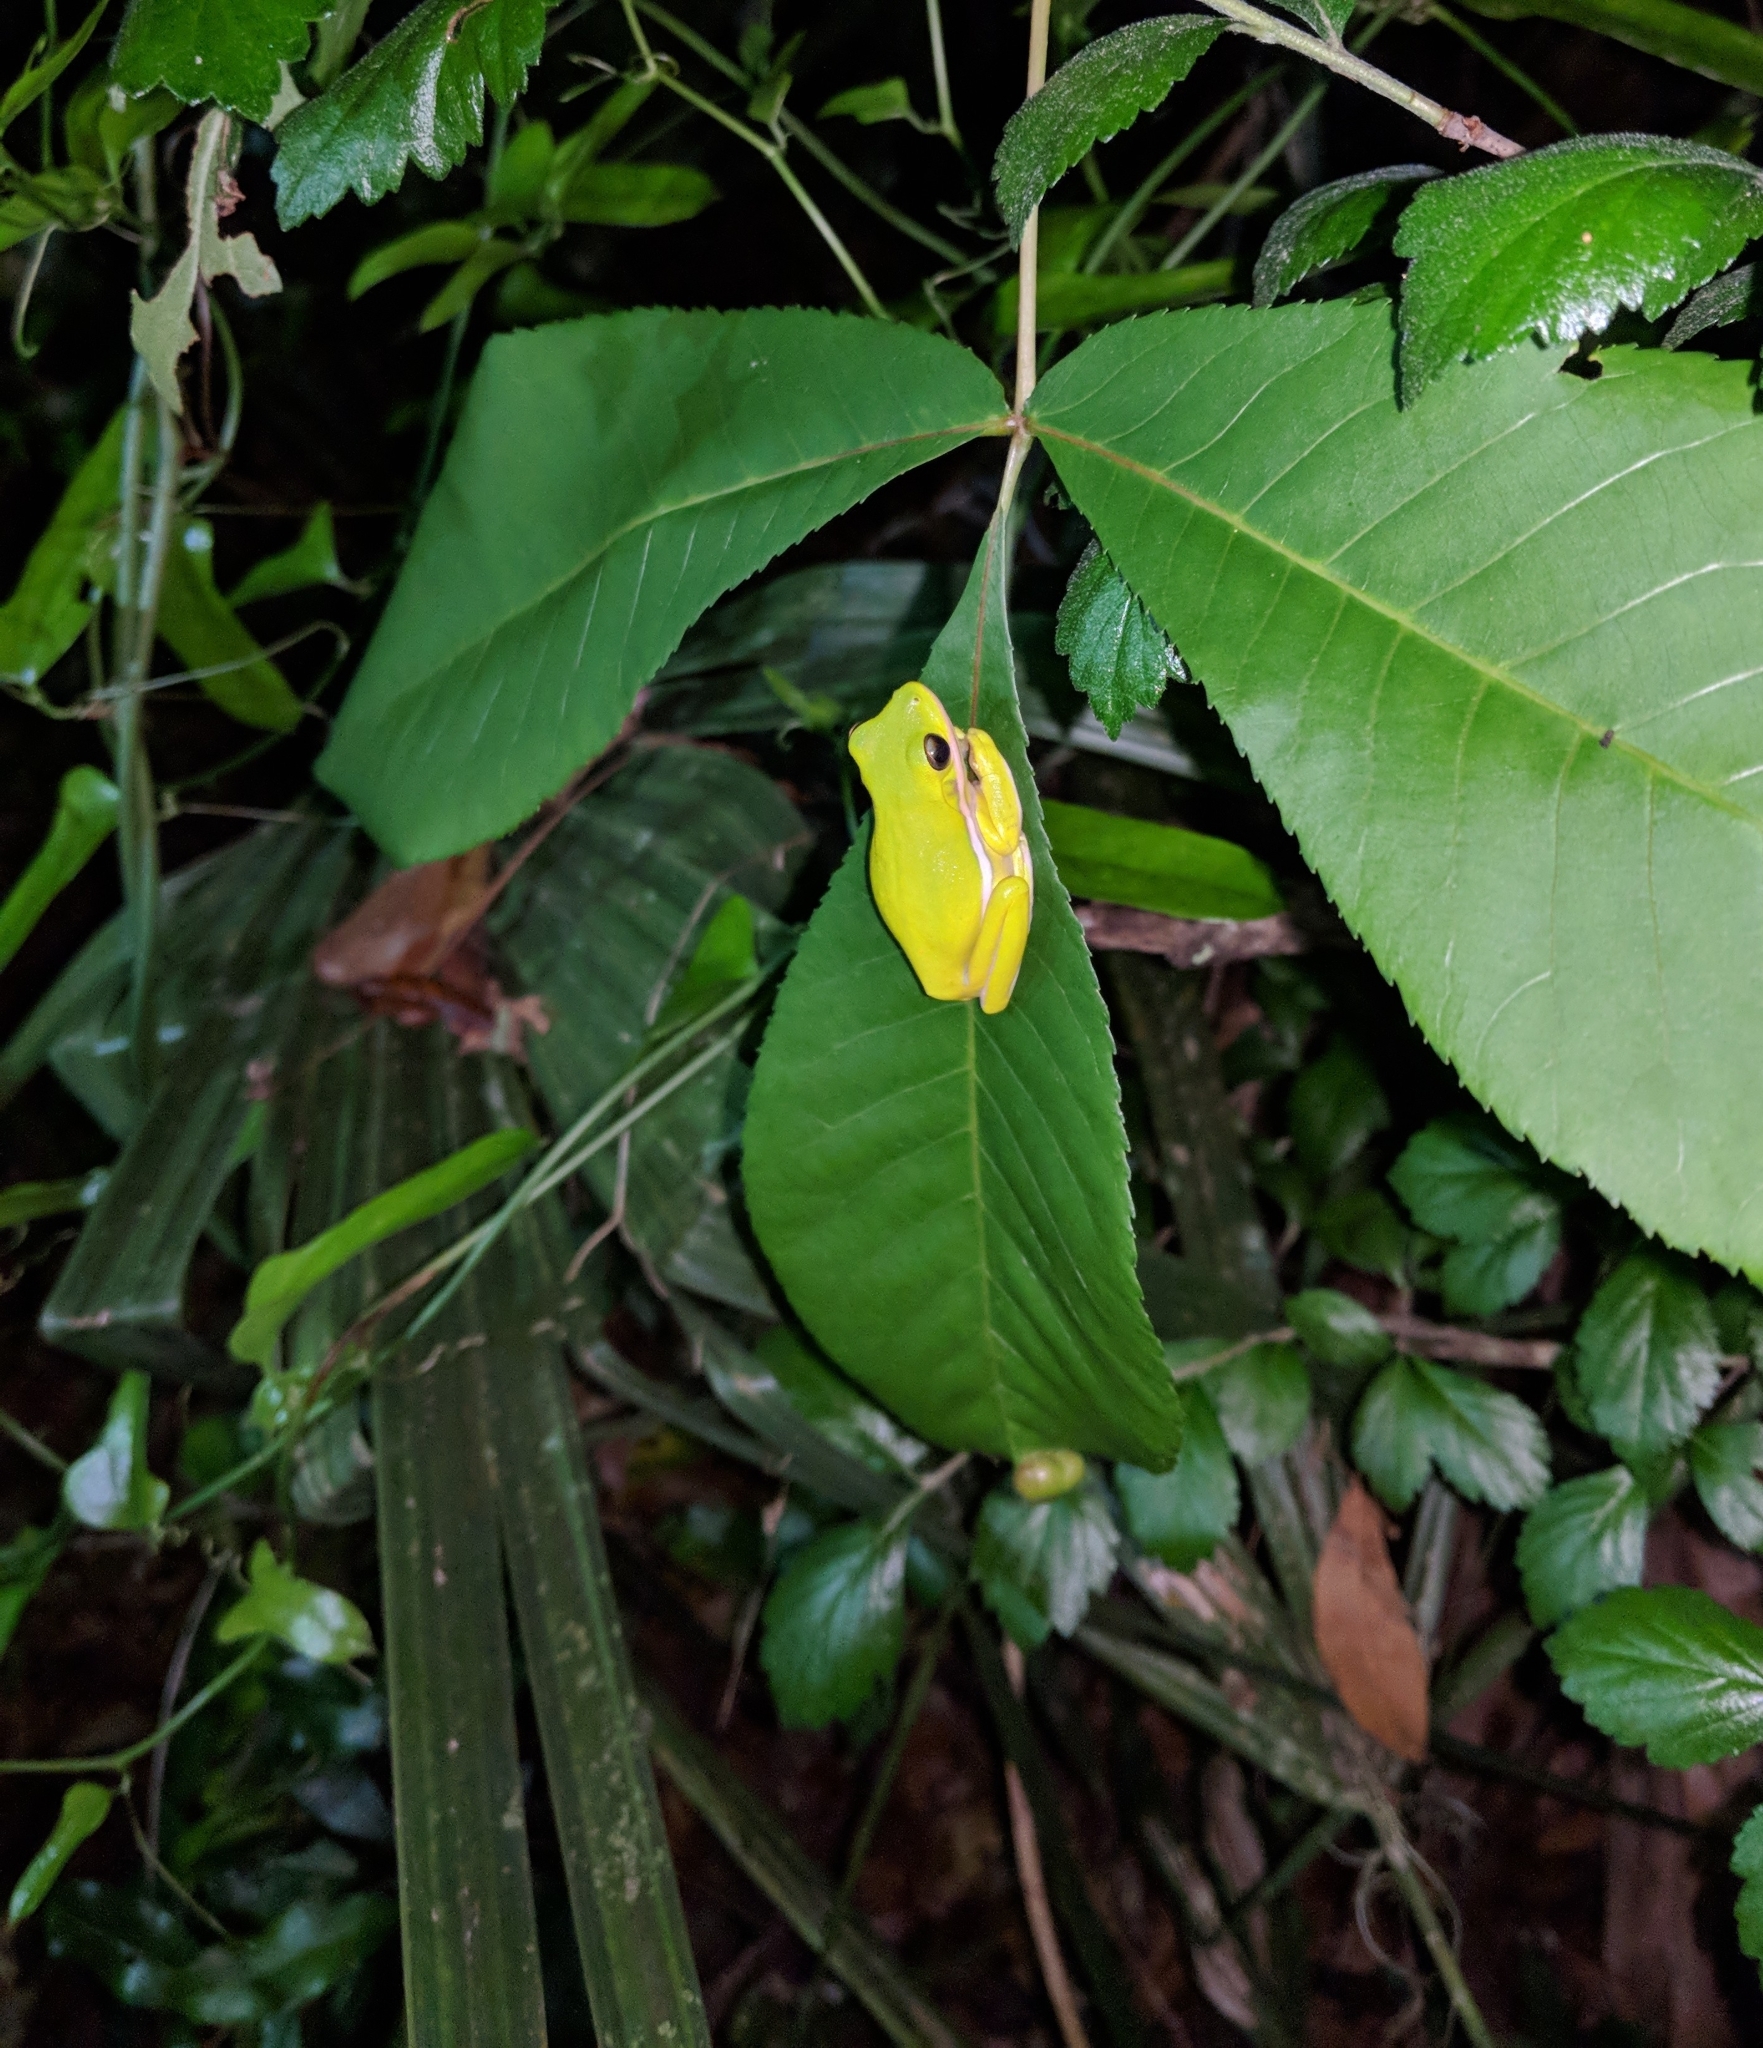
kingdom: Animalia
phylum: Chordata
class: Amphibia
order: Anura
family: Hylidae
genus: Dryophytes
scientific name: Dryophytes cinereus
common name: Green treefrog
